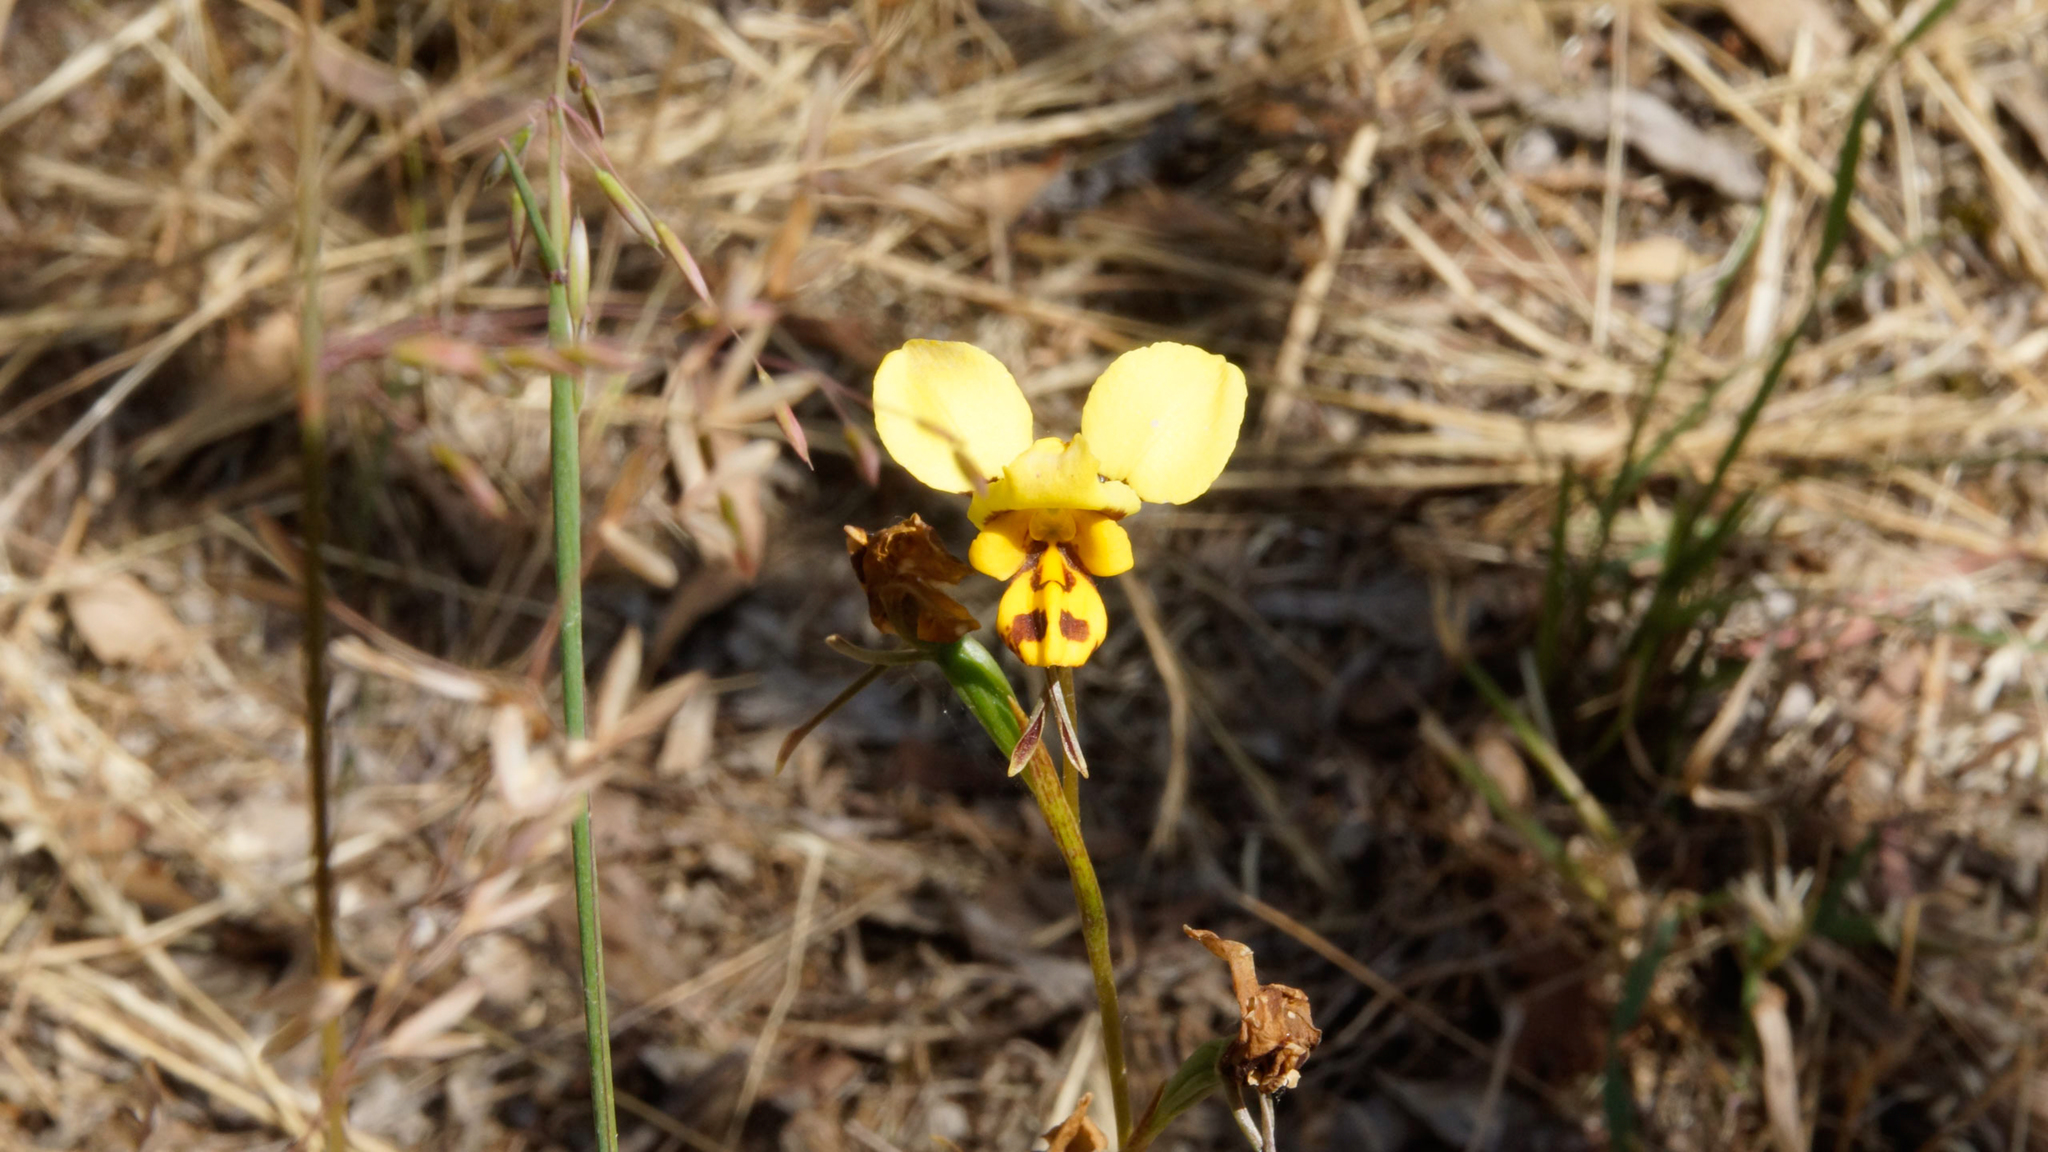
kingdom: Plantae
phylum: Tracheophyta
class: Liliopsida
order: Asparagales
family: Orchidaceae
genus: Diuris
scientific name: Diuris sulphurea
